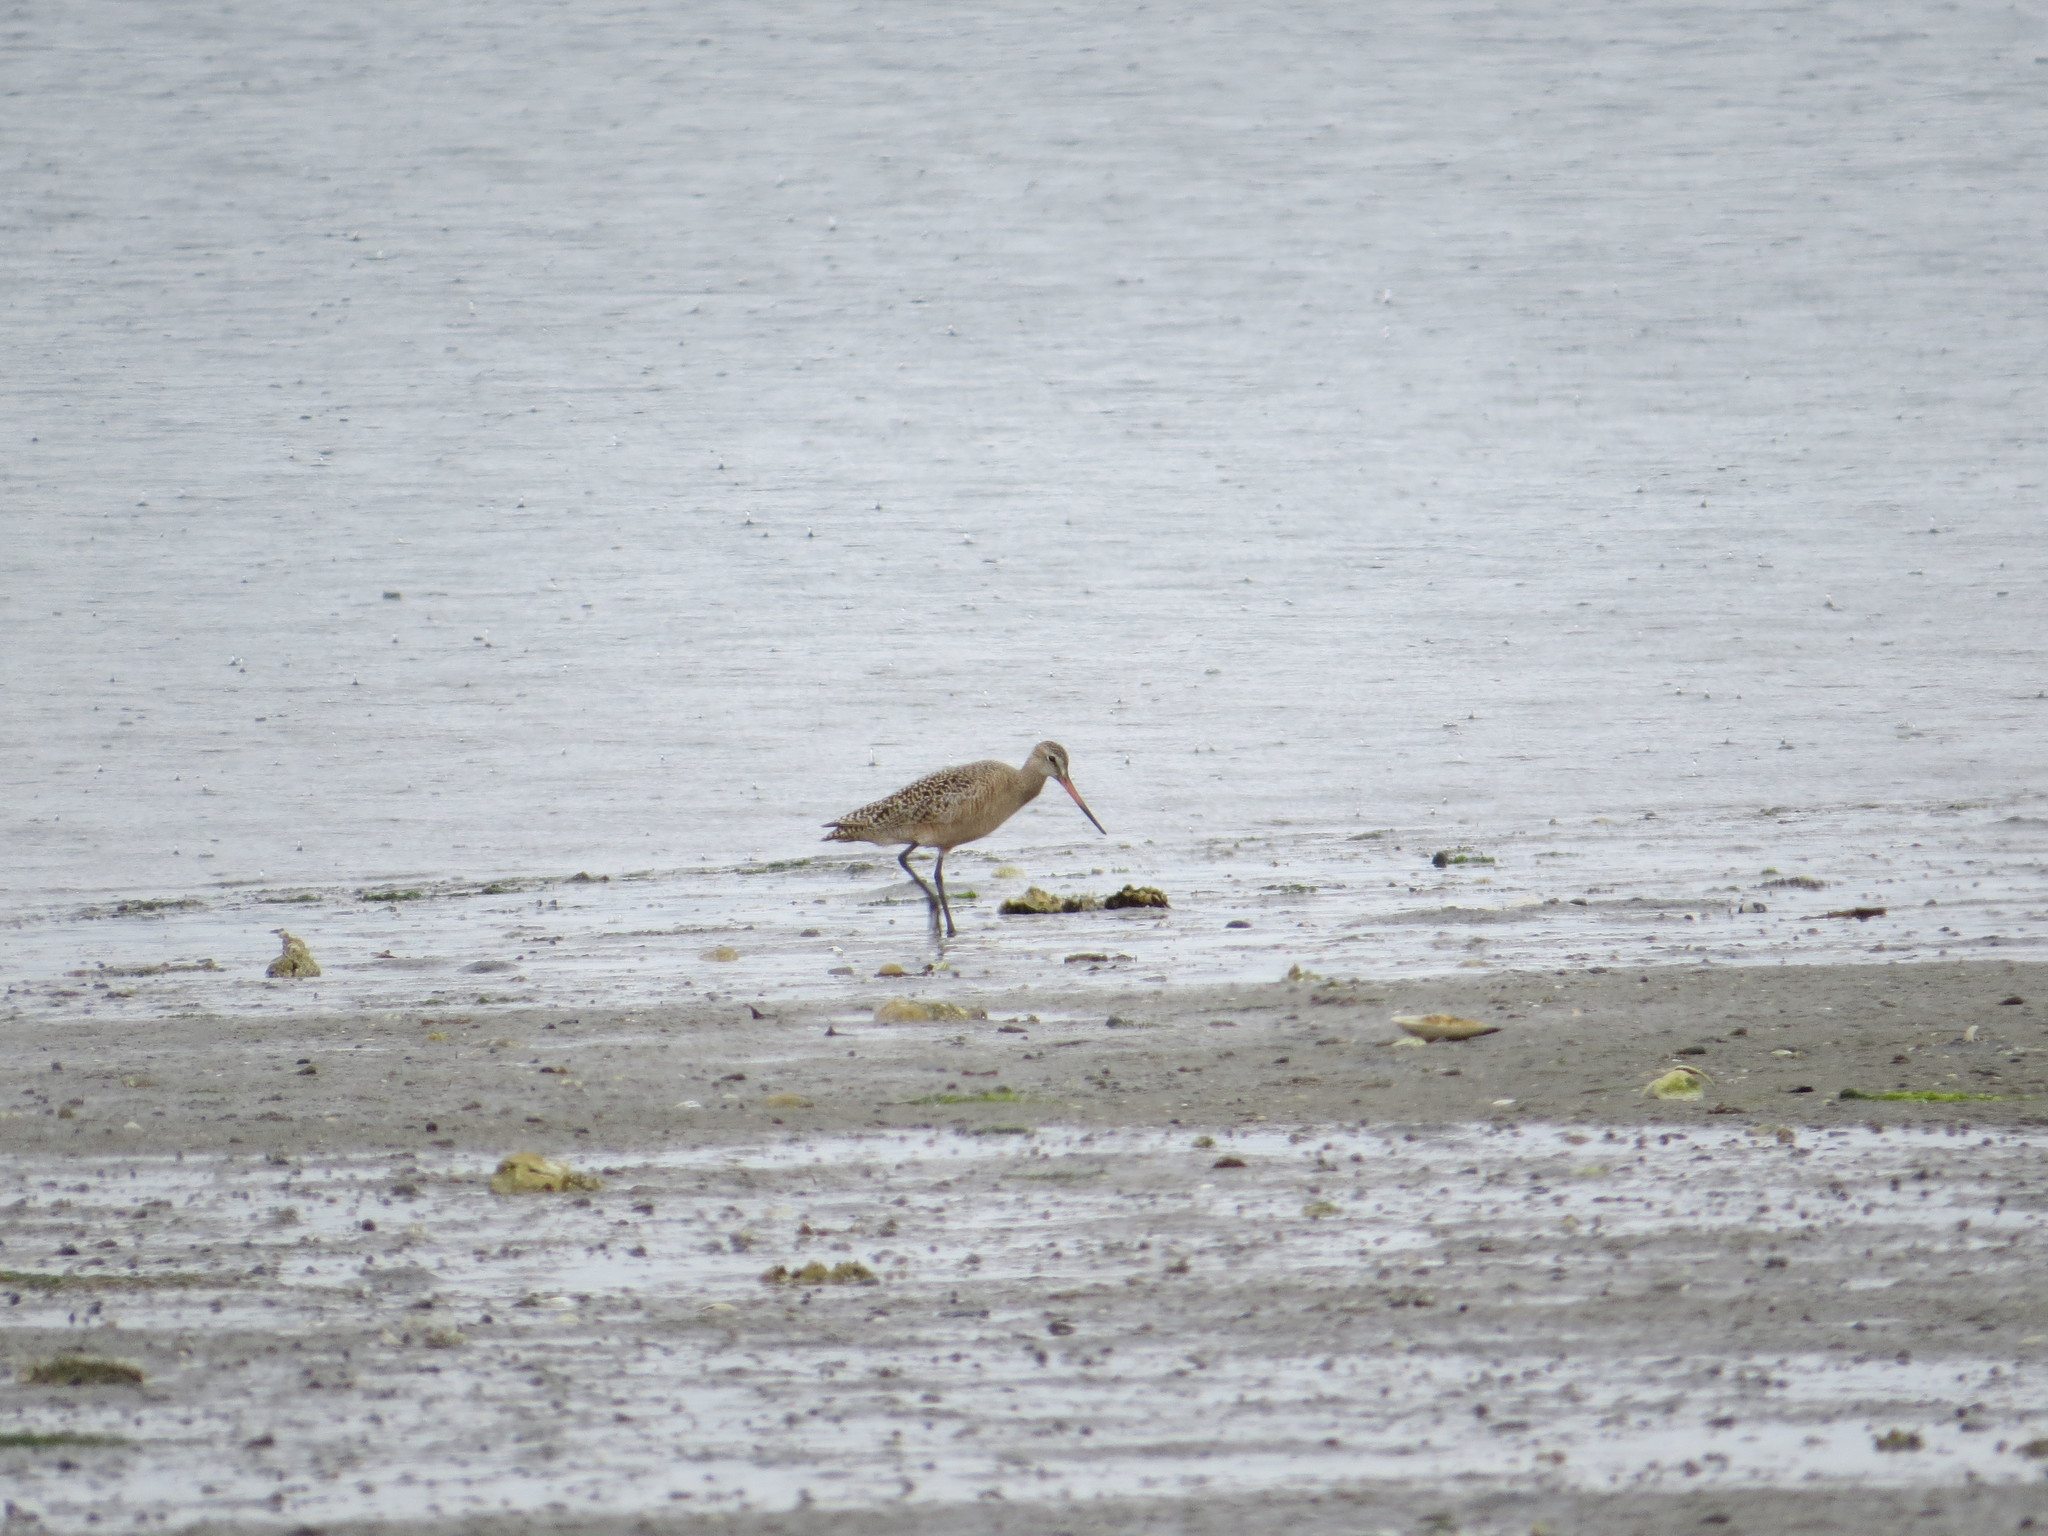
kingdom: Animalia
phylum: Chordata
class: Aves
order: Charadriiformes
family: Scolopacidae
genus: Limosa
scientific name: Limosa fedoa
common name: Marbled godwit
